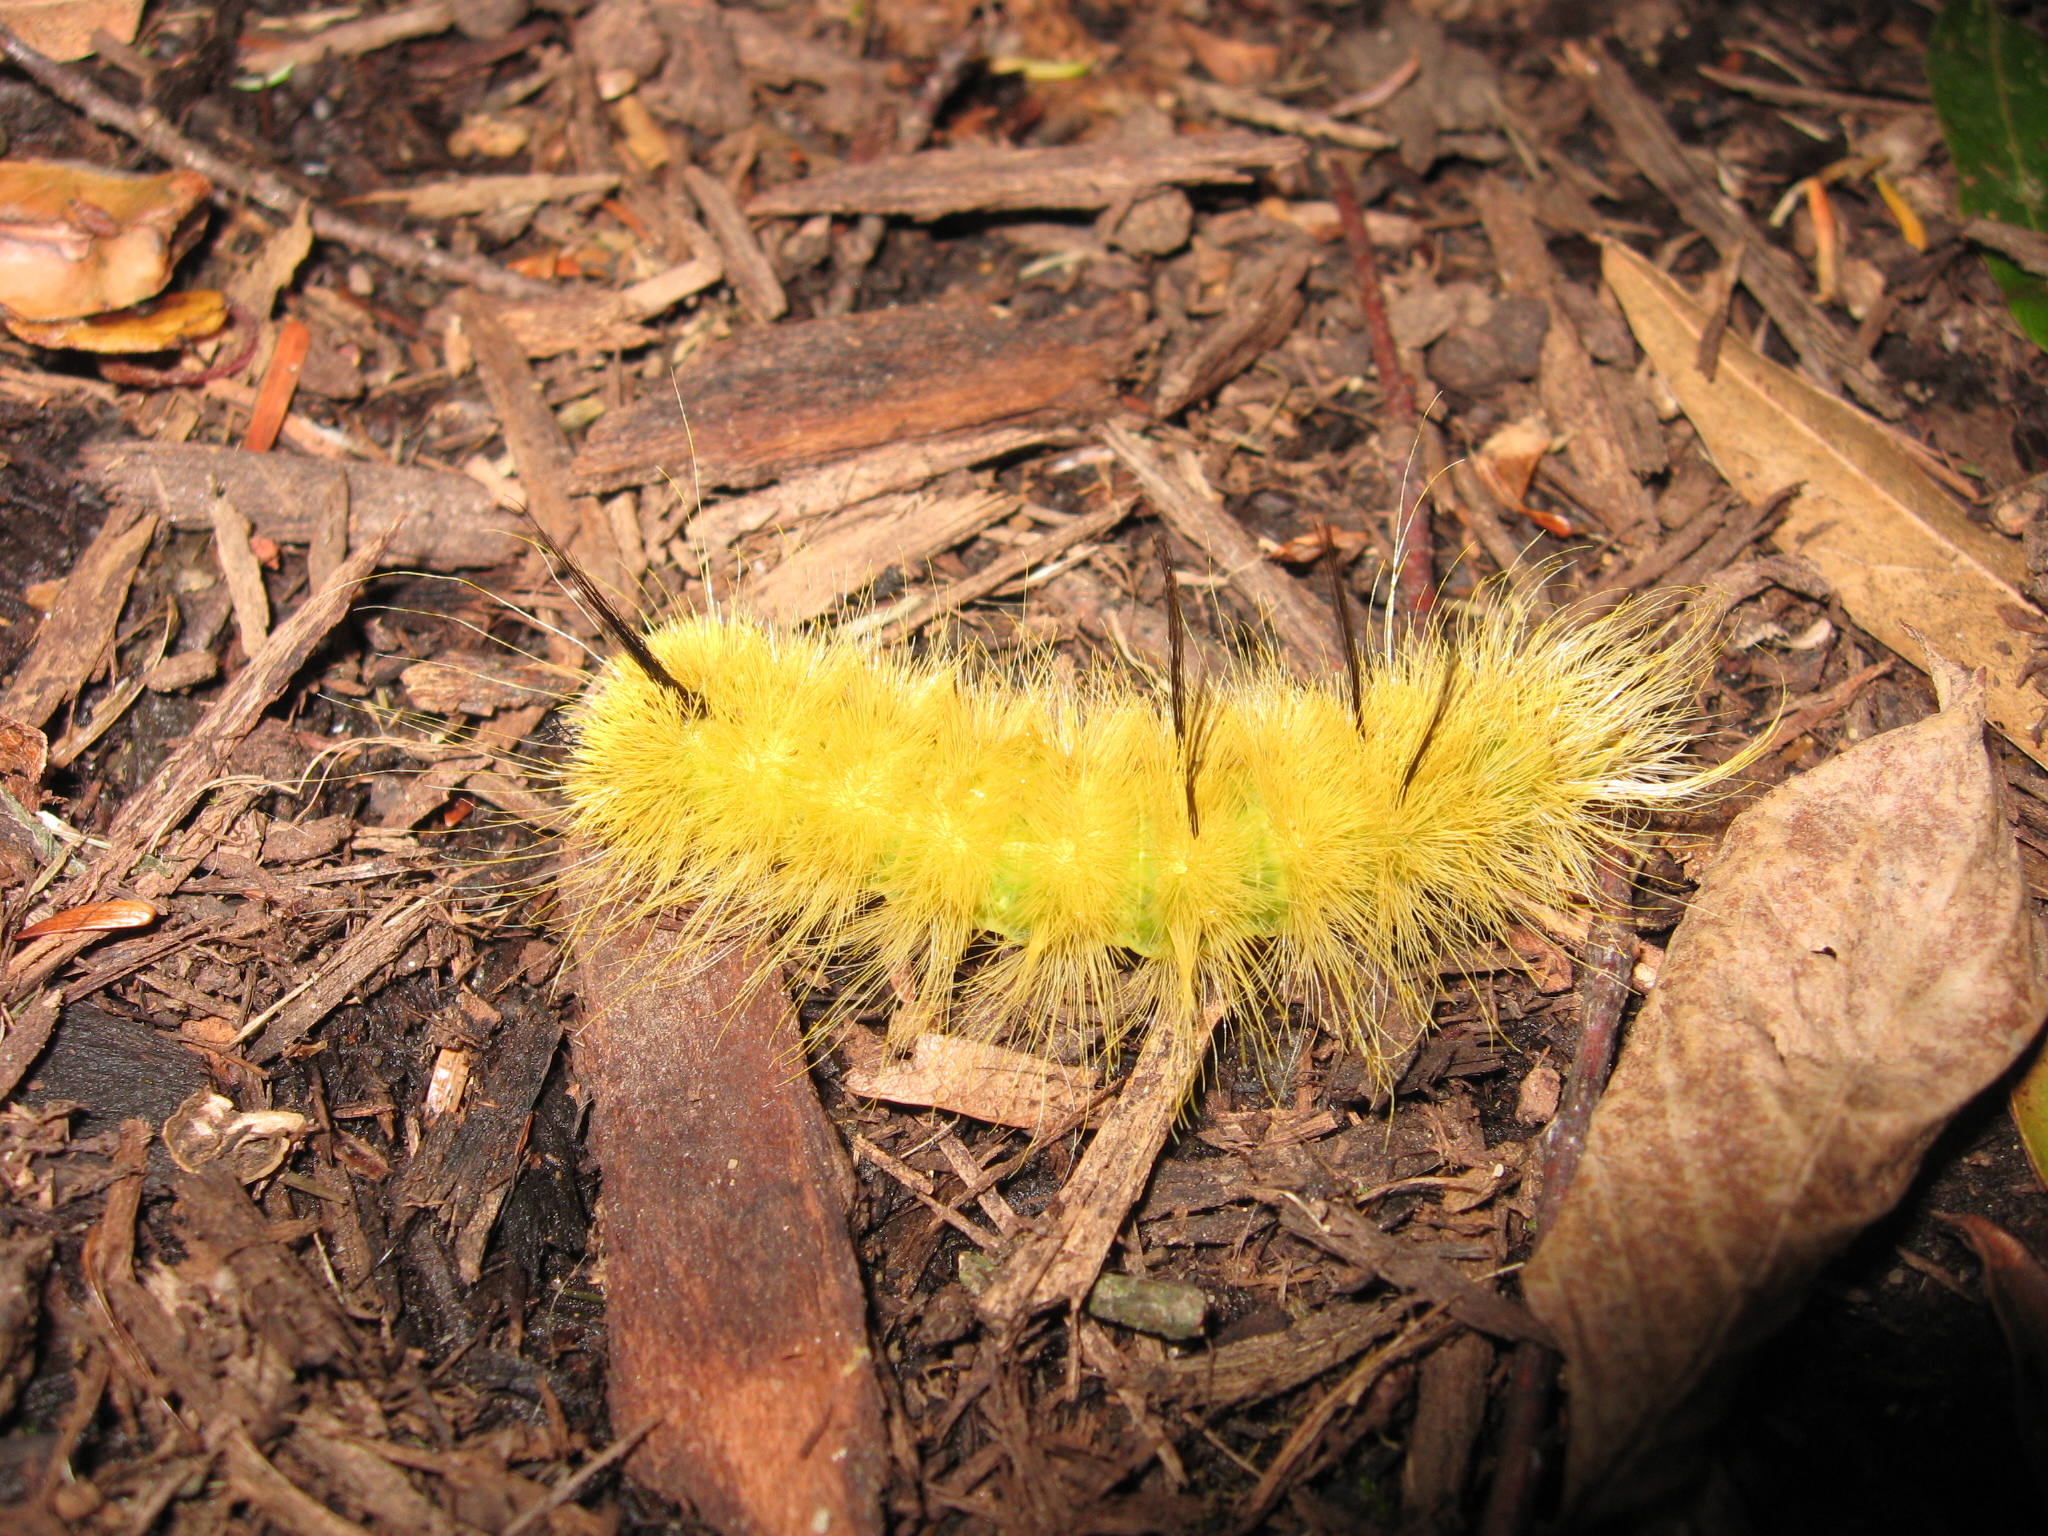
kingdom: Animalia
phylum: Arthropoda
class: Insecta
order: Lepidoptera
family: Noctuidae
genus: Acronicta
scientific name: Acronicta americana
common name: American dagger
